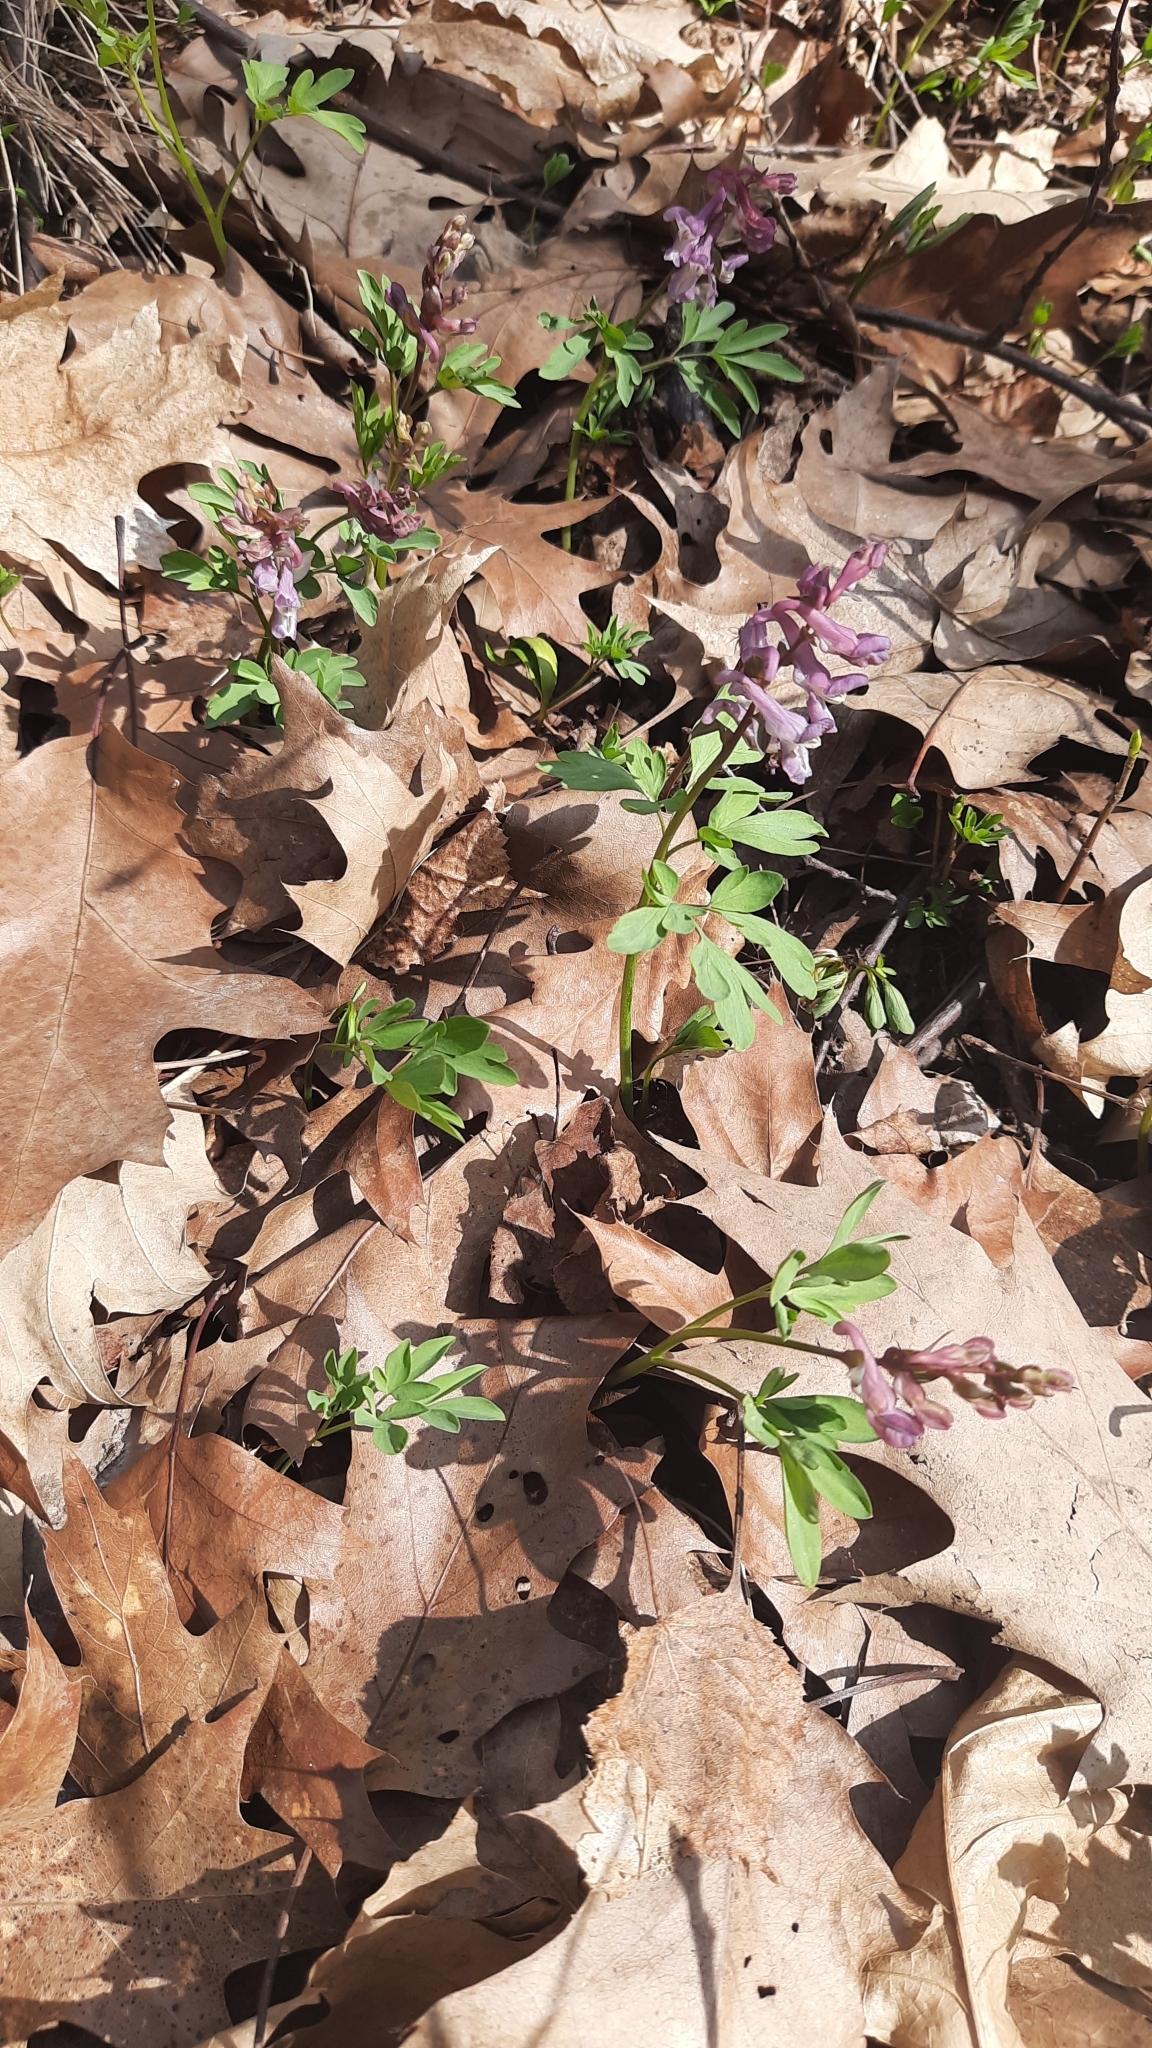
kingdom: Plantae
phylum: Tracheophyta
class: Magnoliopsida
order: Ranunculales
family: Papaveraceae
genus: Corydalis
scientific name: Corydalis cava
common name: Hollowroot
